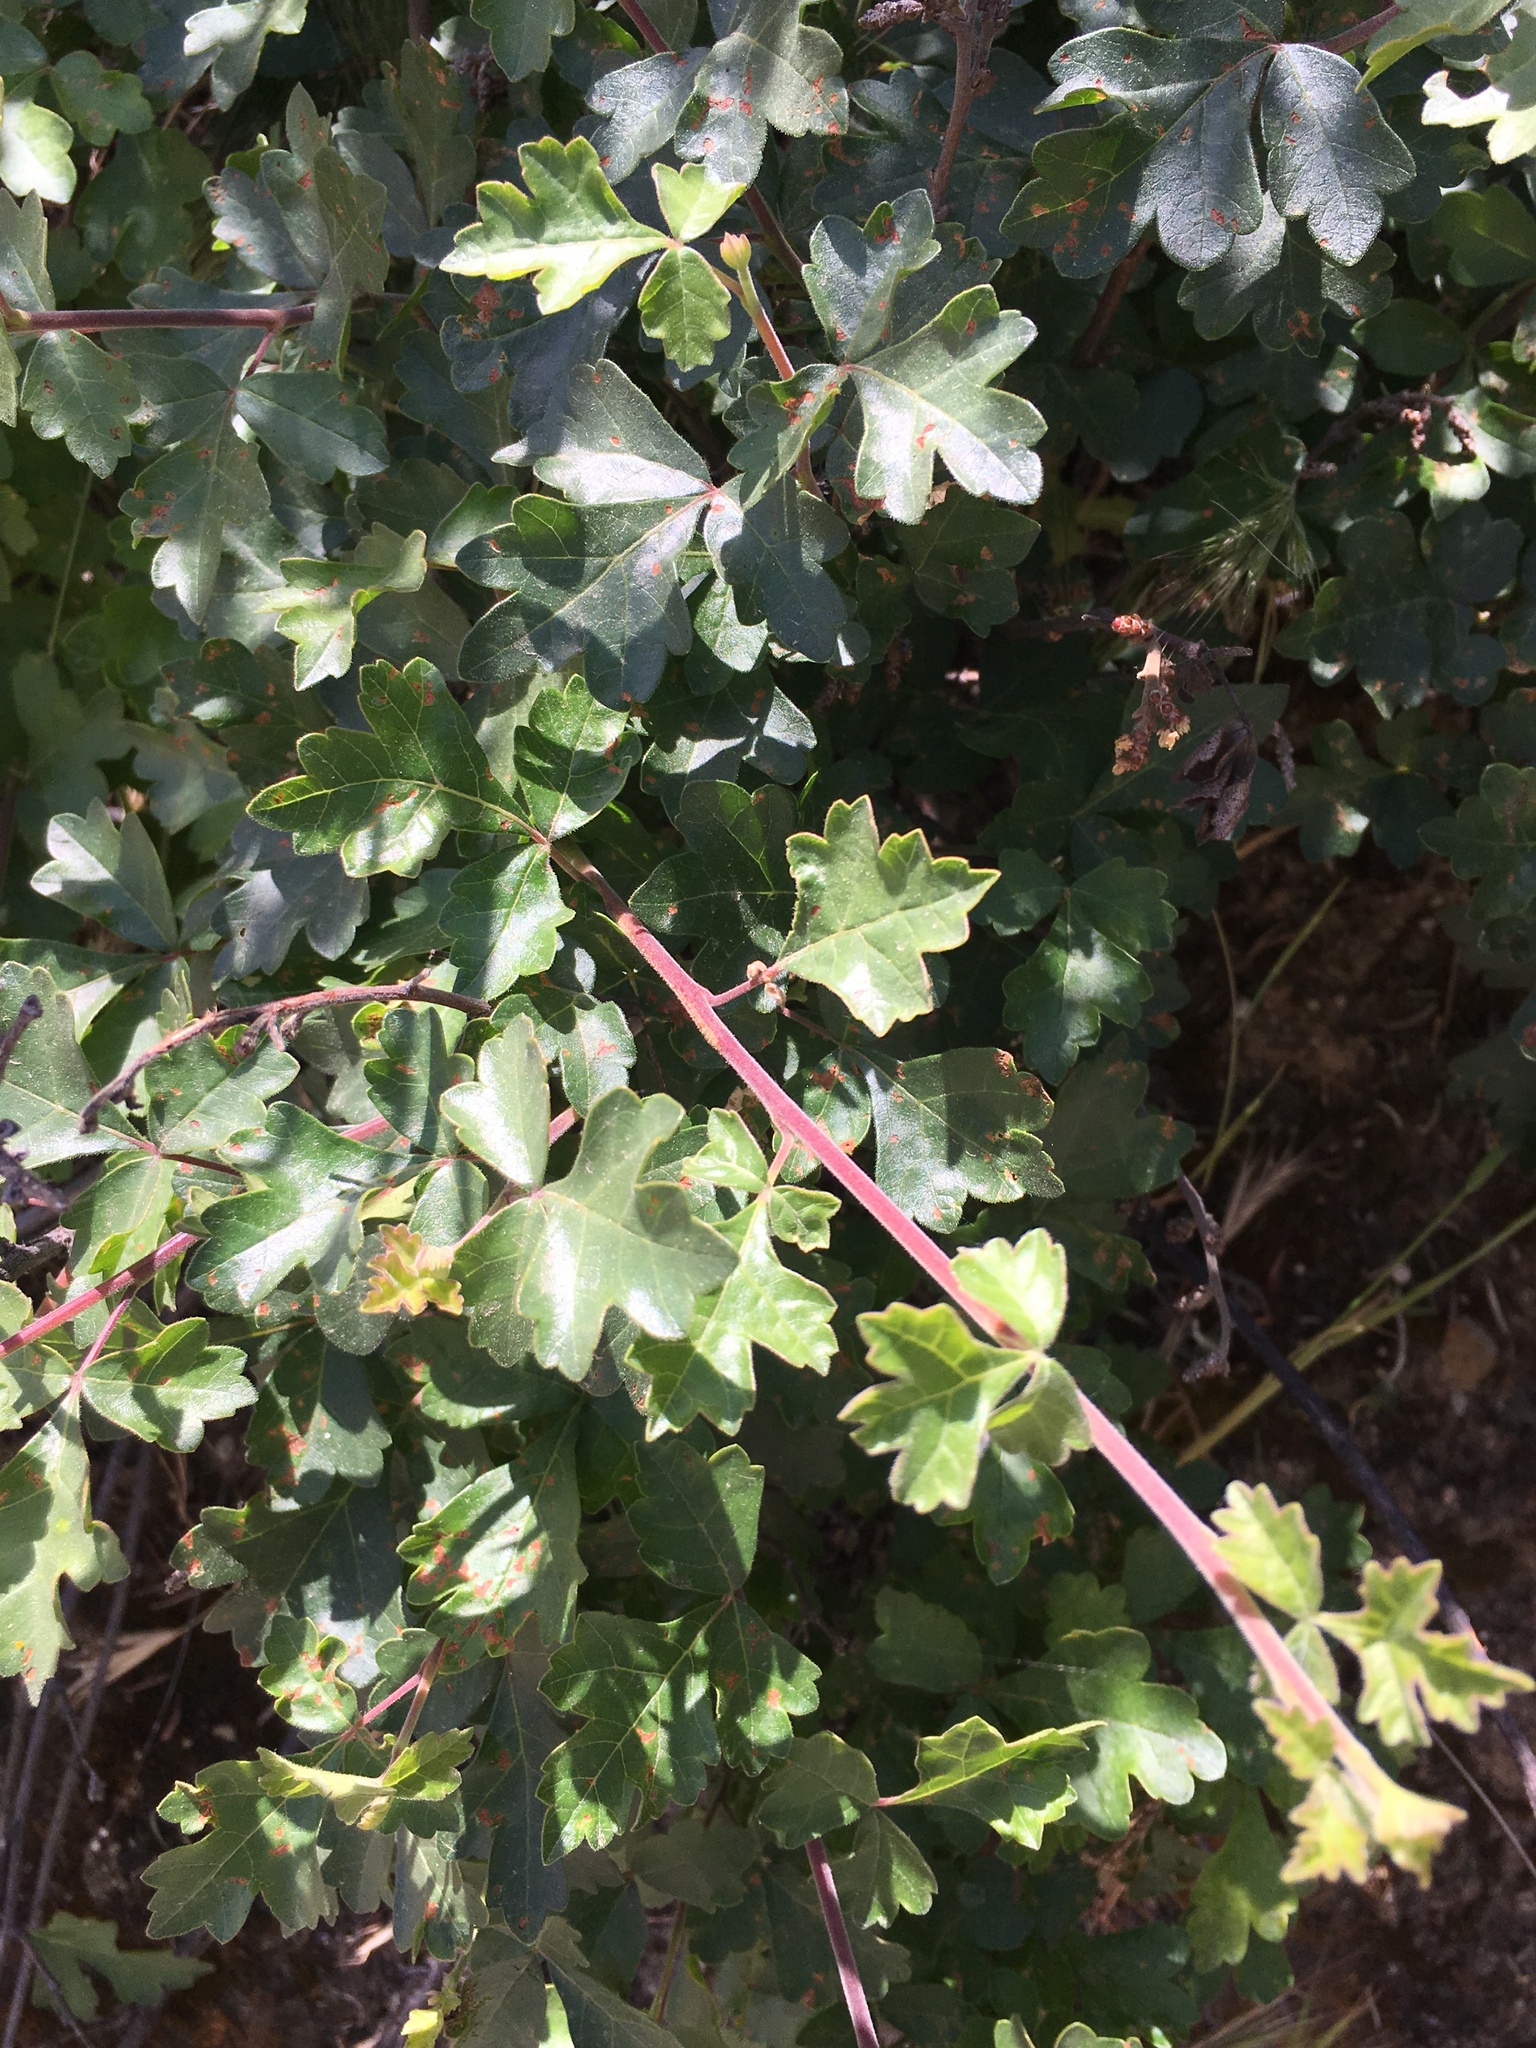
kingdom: Plantae
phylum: Tracheophyta
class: Magnoliopsida
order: Sapindales
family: Anacardiaceae
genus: Rhus
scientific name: Rhus aromatica
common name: Aromatic sumac
